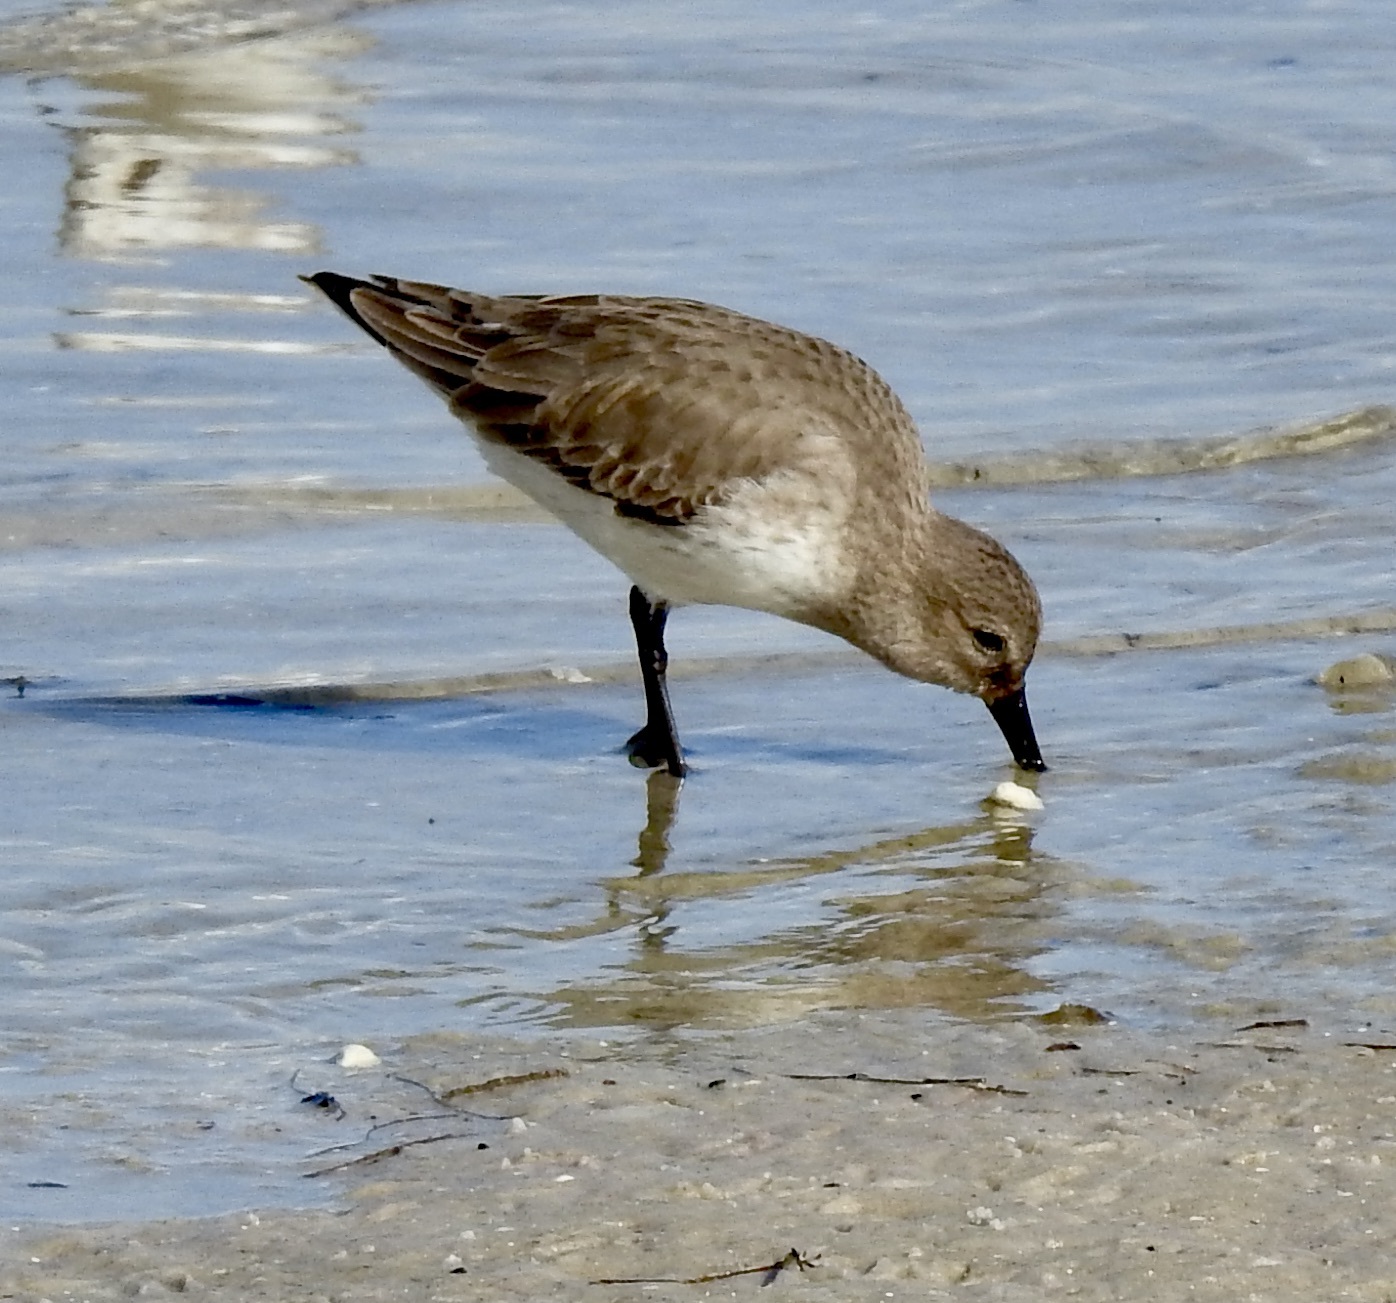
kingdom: Animalia
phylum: Chordata
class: Aves
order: Charadriiformes
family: Scolopacidae
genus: Calidris
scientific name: Calidris alpina
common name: Dunlin
